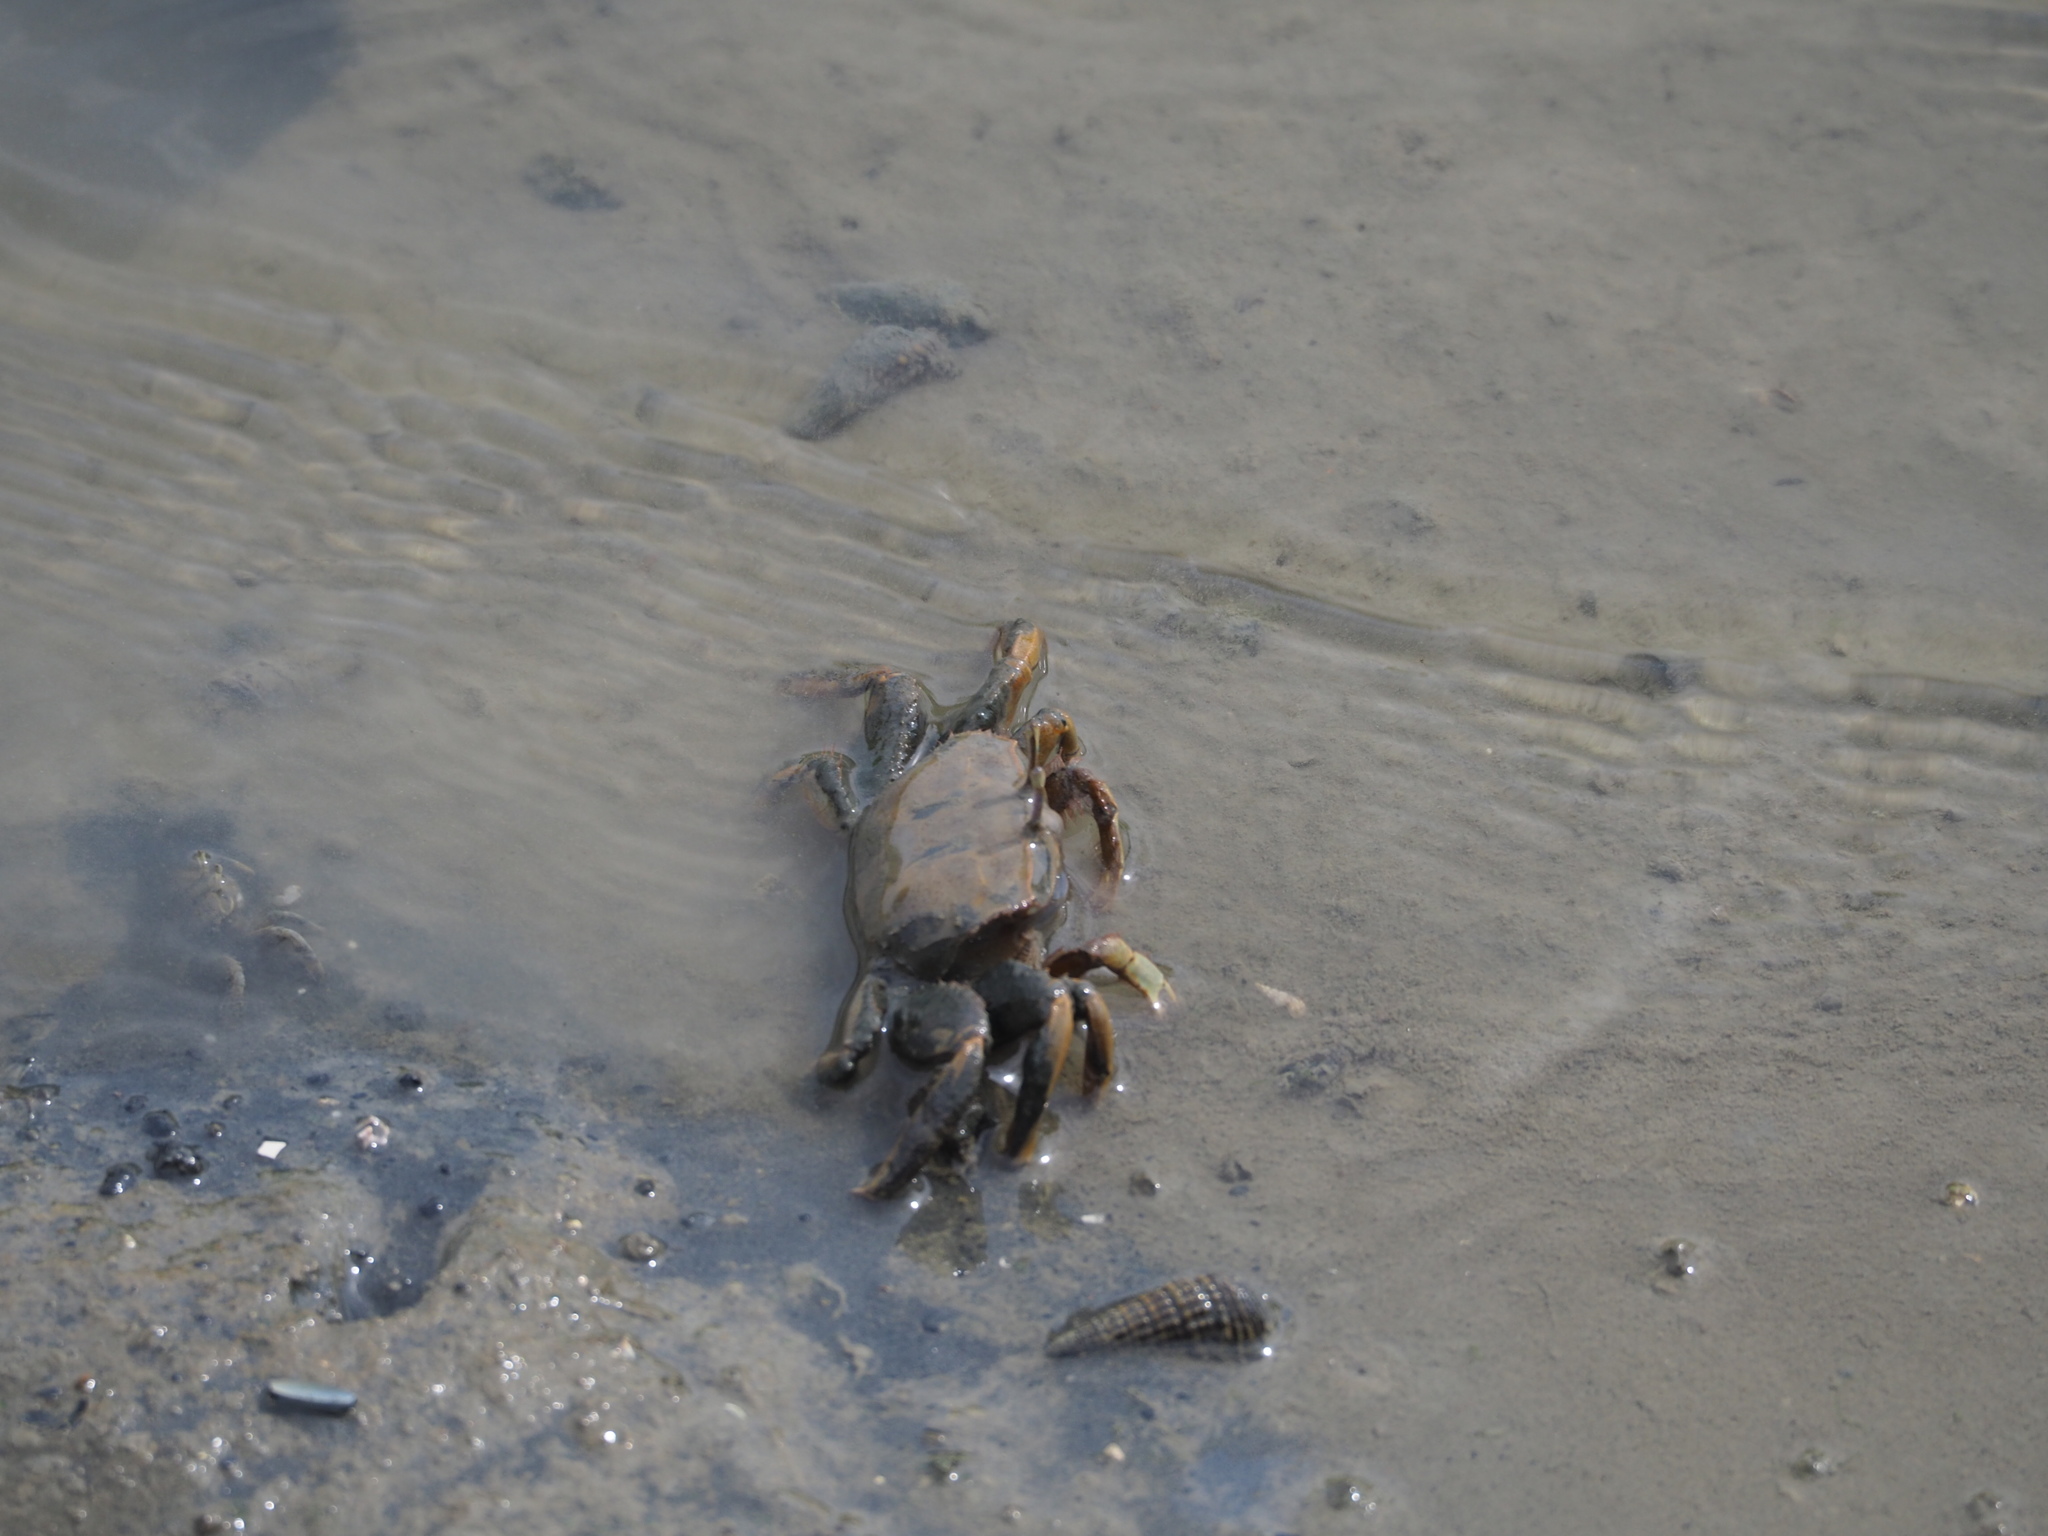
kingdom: Animalia
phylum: Arthropoda
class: Malacostraca
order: Decapoda
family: Macrophthalmidae
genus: Macrophthalmus
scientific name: Macrophthalmus banzai
